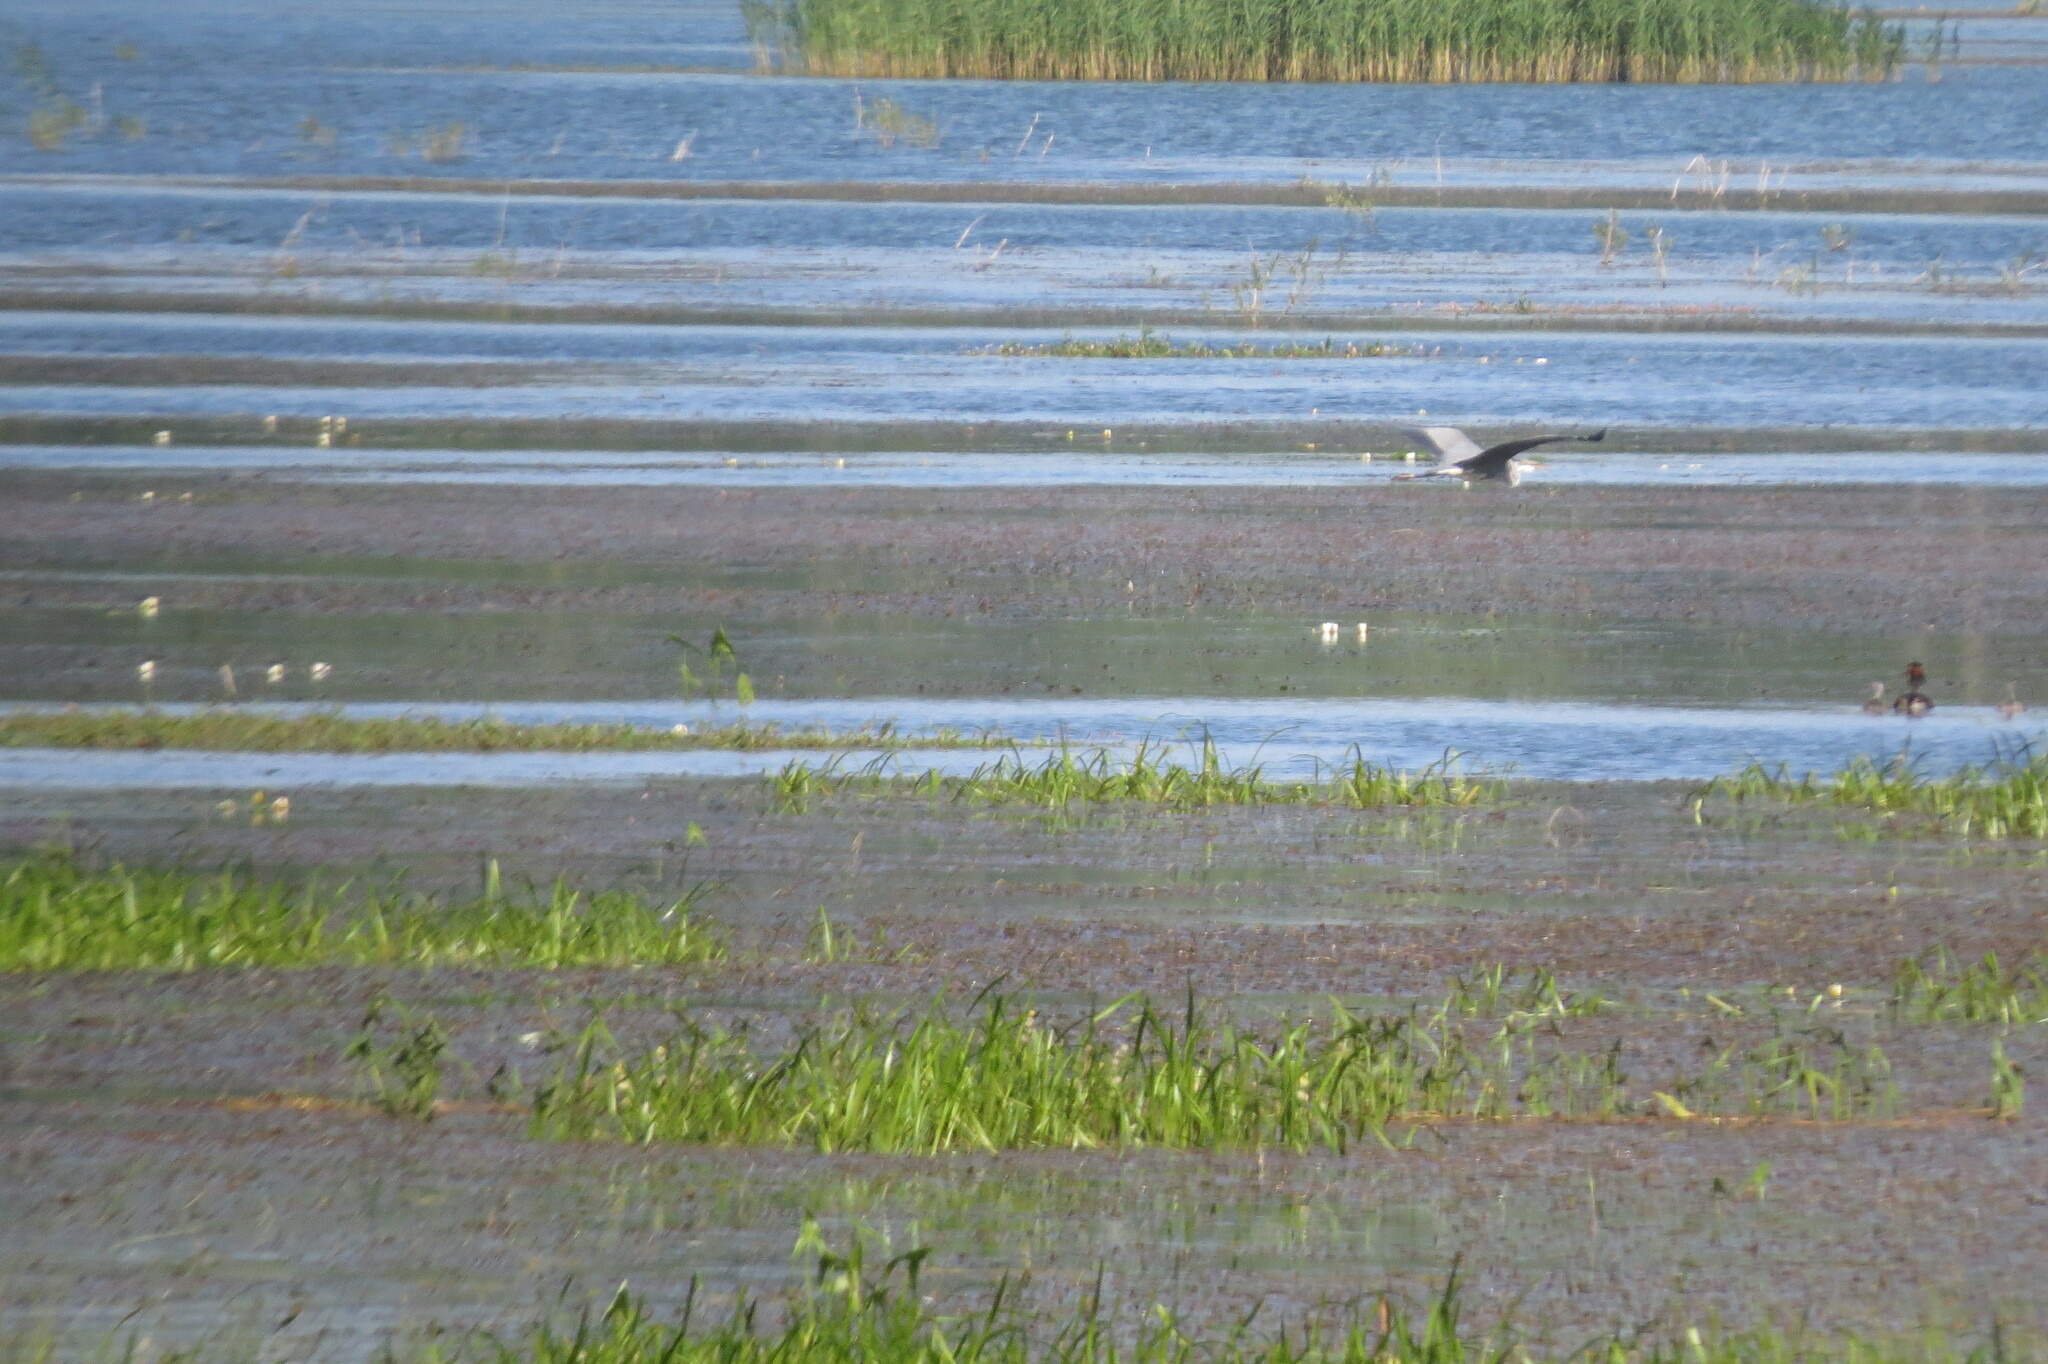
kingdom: Animalia
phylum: Chordata
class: Aves
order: Pelecaniformes
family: Ardeidae
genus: Ardea
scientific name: Ardea cinerea
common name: Grey heron
